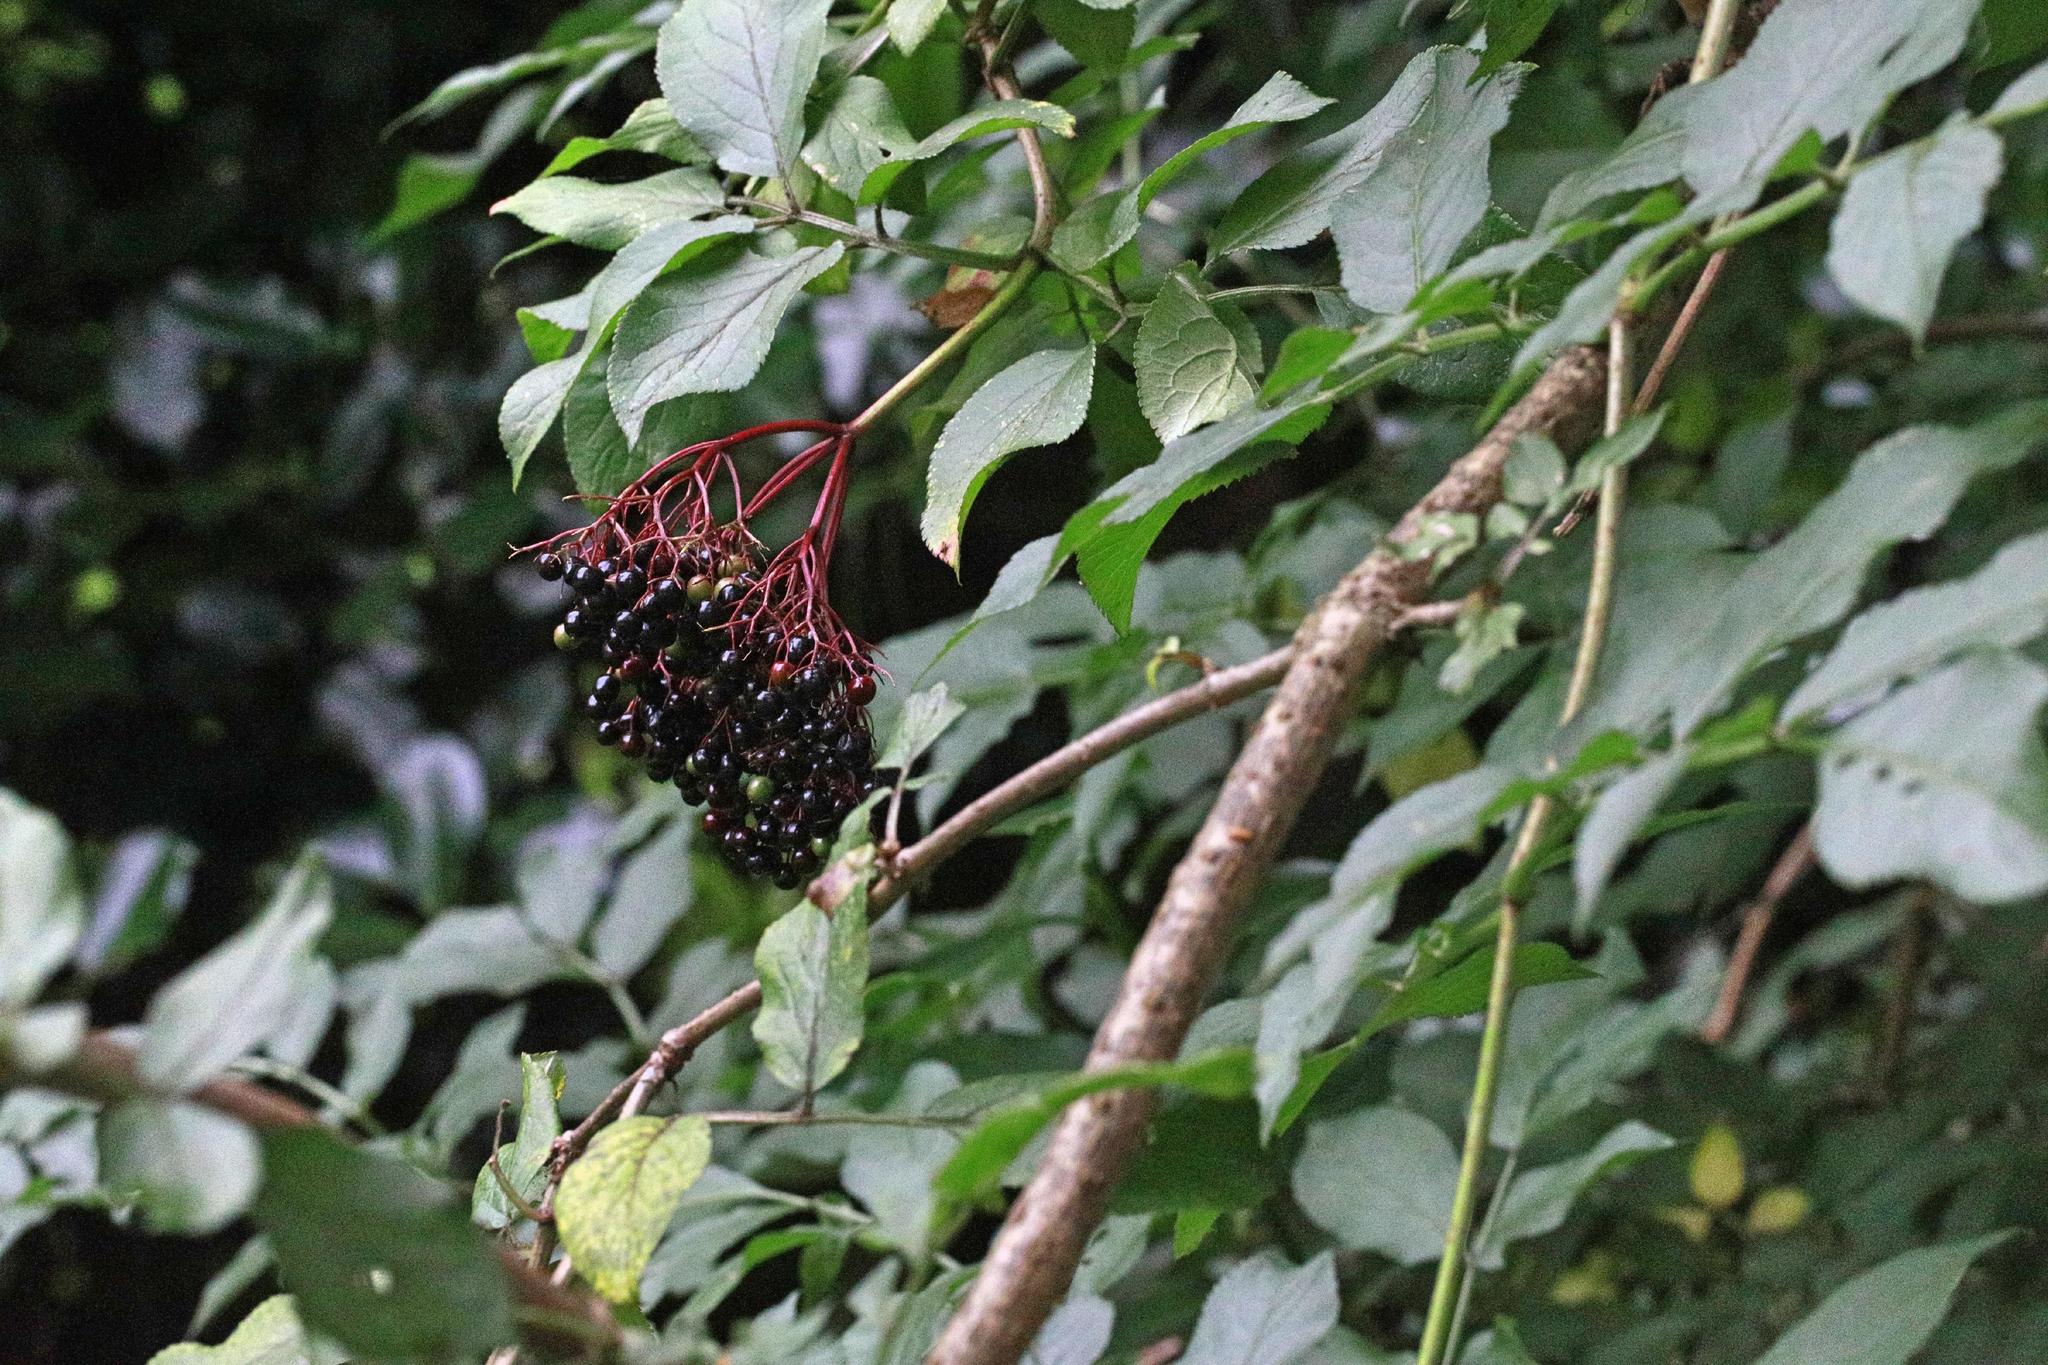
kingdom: Plantae
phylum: Tracheophyta
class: Magnoliopsida
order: Dipsacales
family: Viburnaceae
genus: Sambucus
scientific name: Sambucus nigra
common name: Elder
